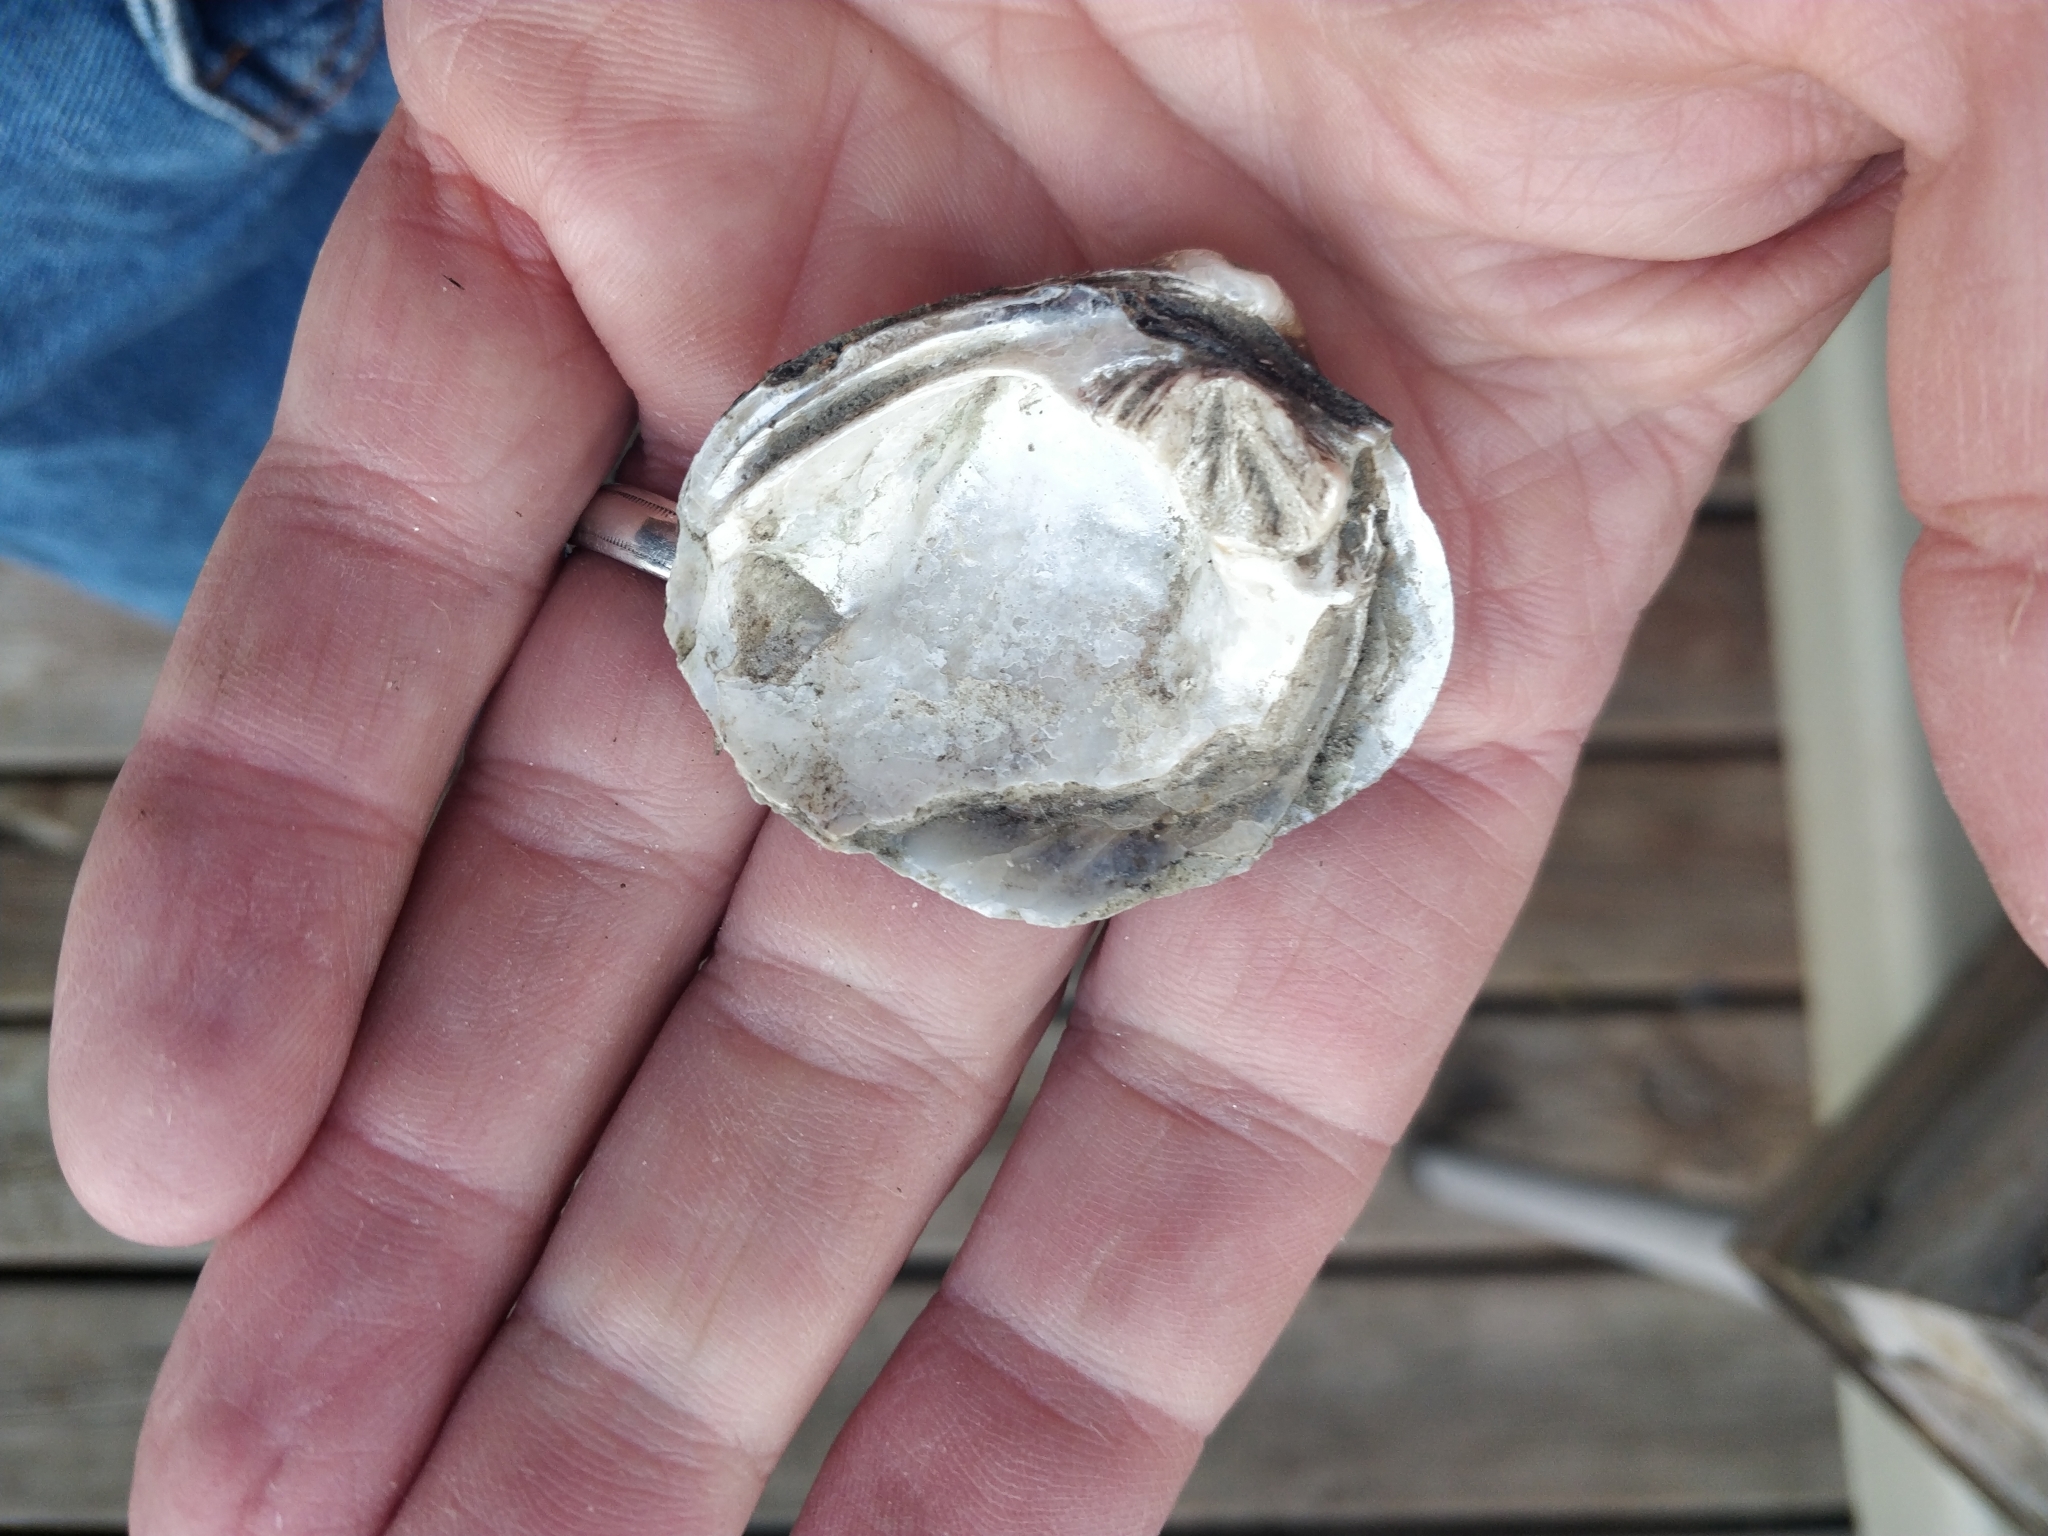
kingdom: Animalia
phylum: Mollusca
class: Bivalvia
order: Unionida
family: Unionidae
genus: Cyclonaias
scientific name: Cyclonaias pustulosa
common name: Pimpleback
